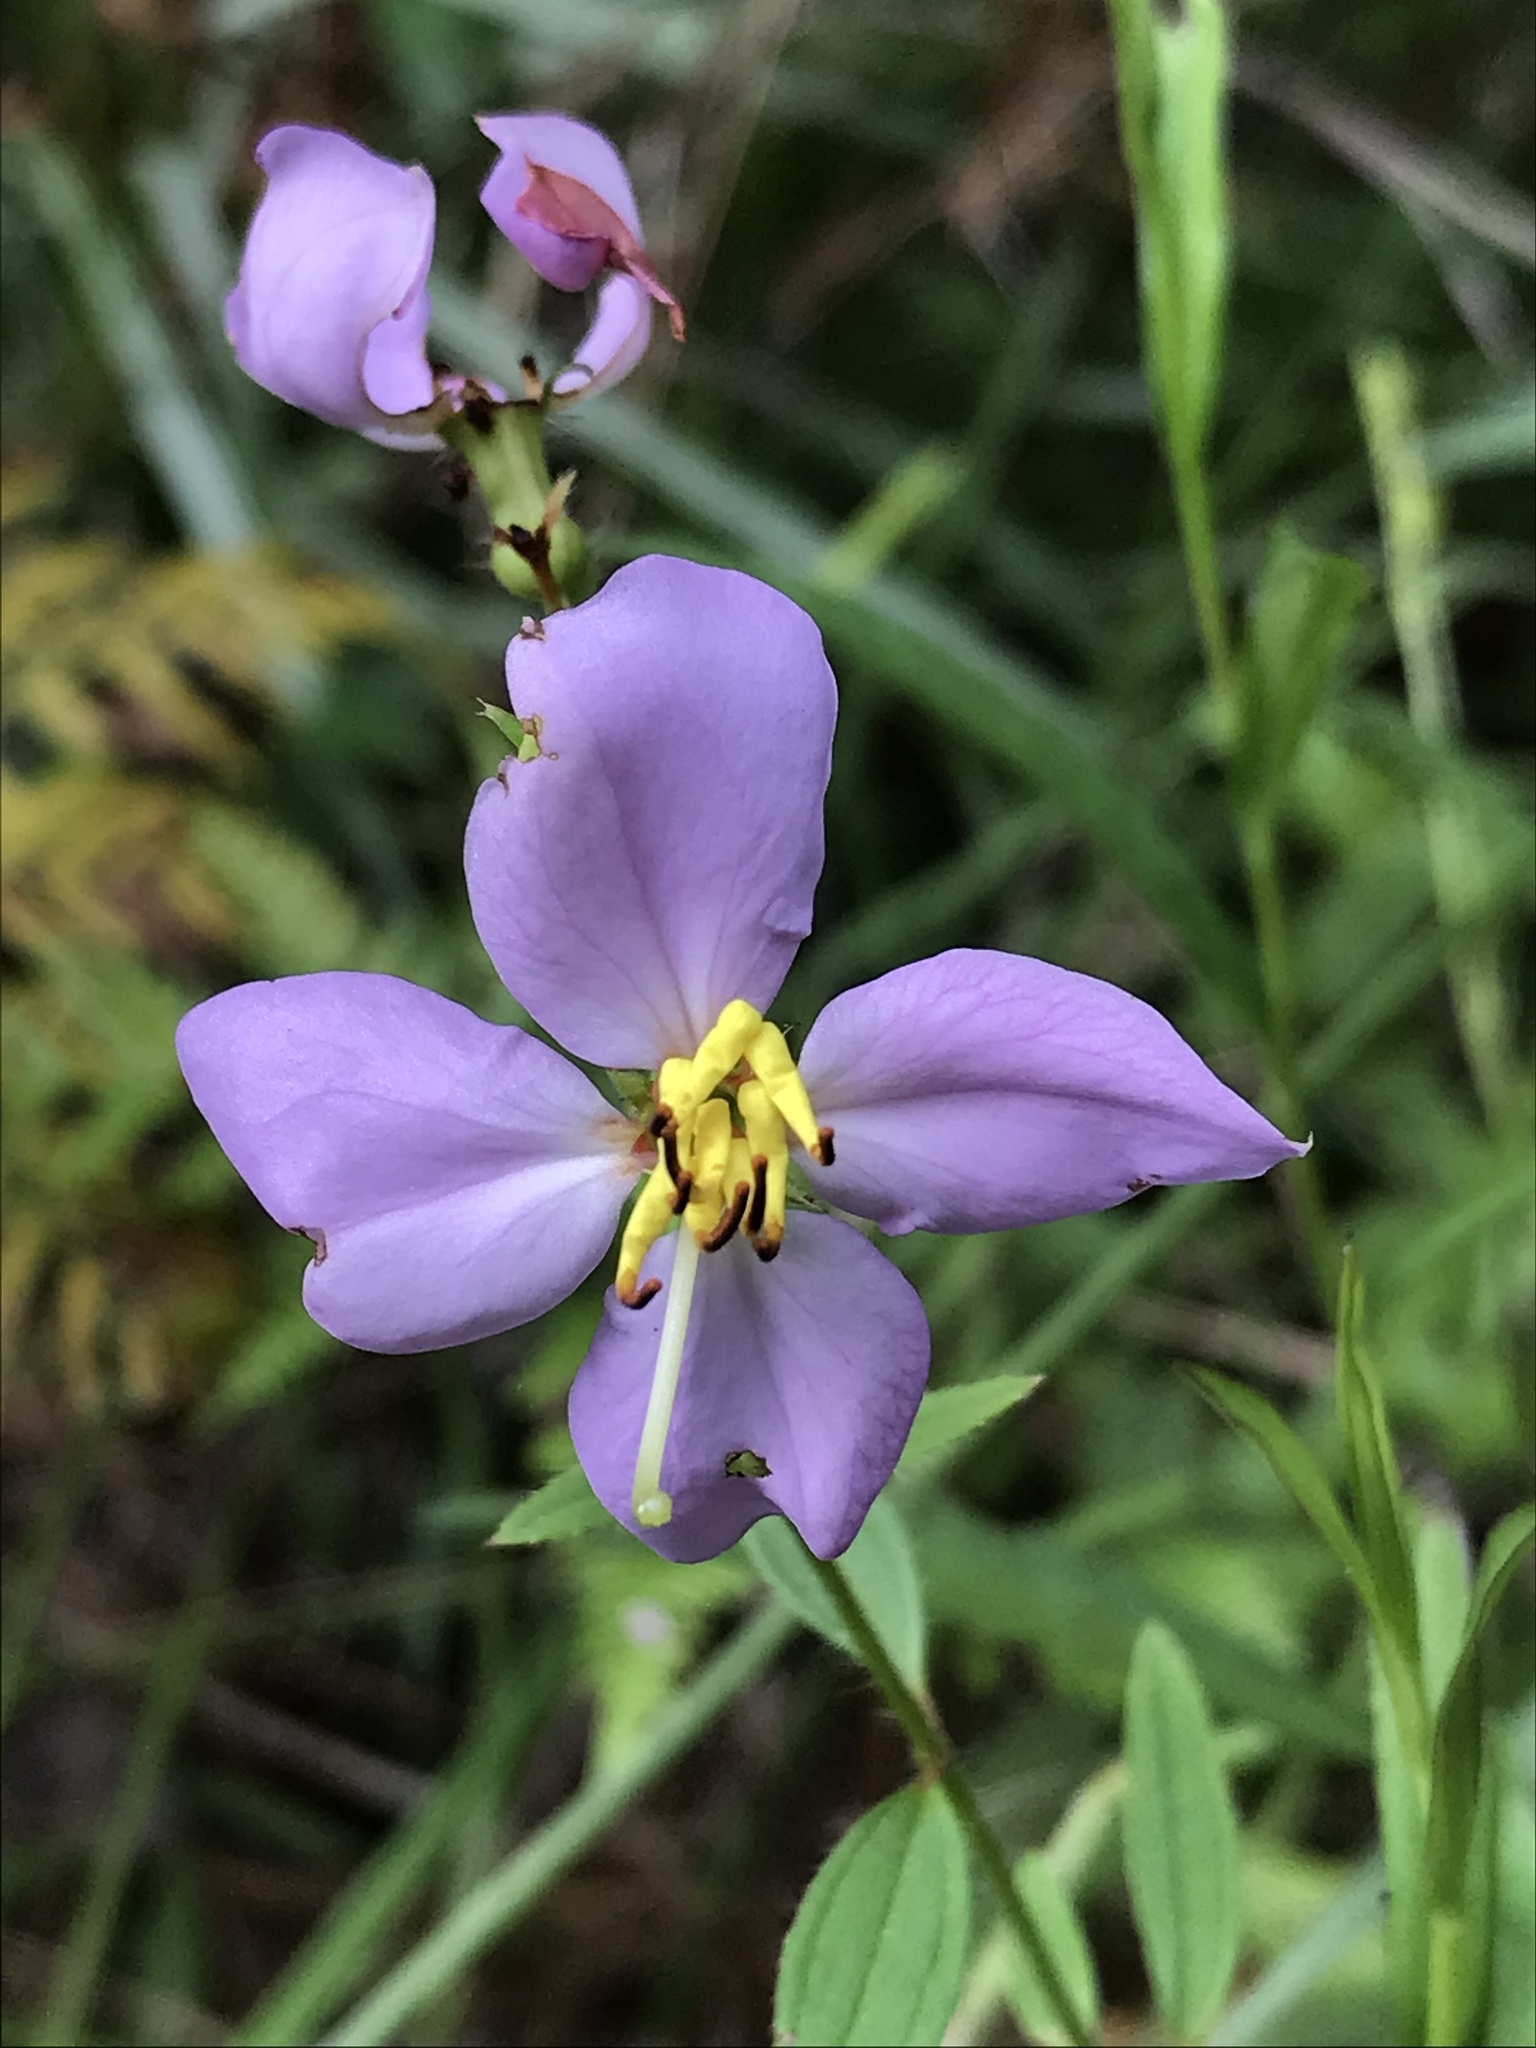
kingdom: Plantae
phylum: Tracheophyta
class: Magnoliopsida
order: Myrtales
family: Melastomataceae
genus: Rhexia
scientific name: Rhexia mariana
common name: Dull meadow-pitcher
